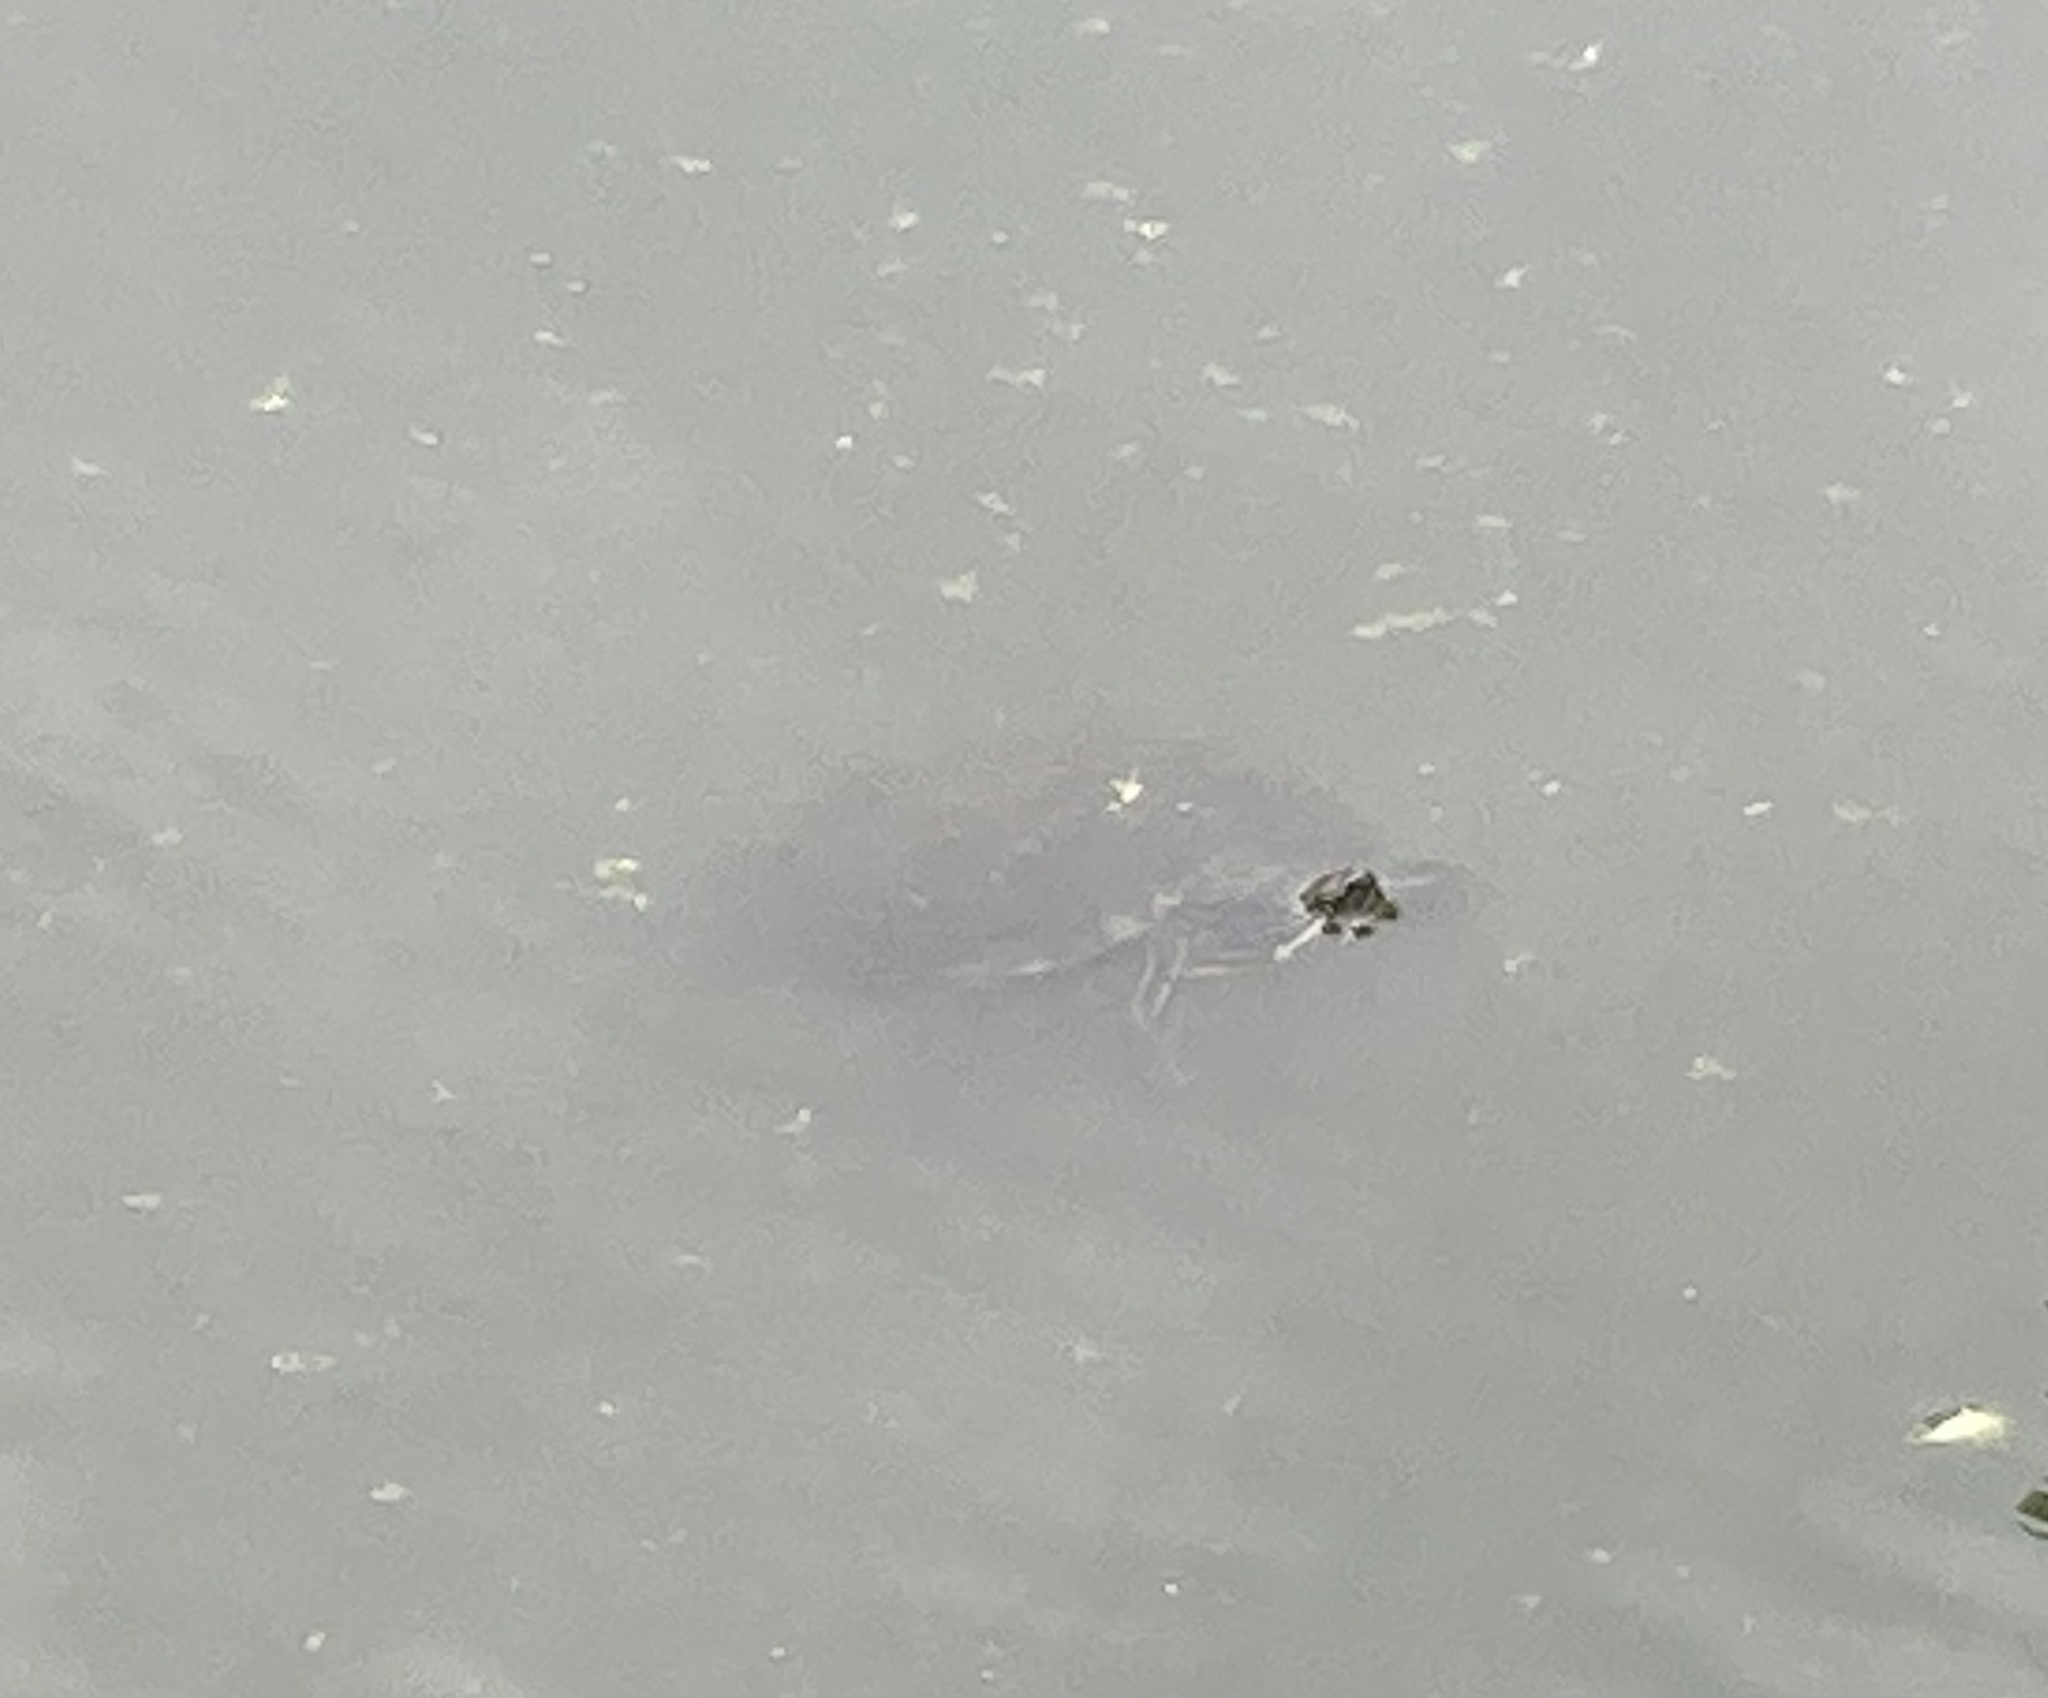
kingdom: Animalia
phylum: Chordata
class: Testudines
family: Emydidae
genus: Trachemys
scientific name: Trachemys scripta
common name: Slider
